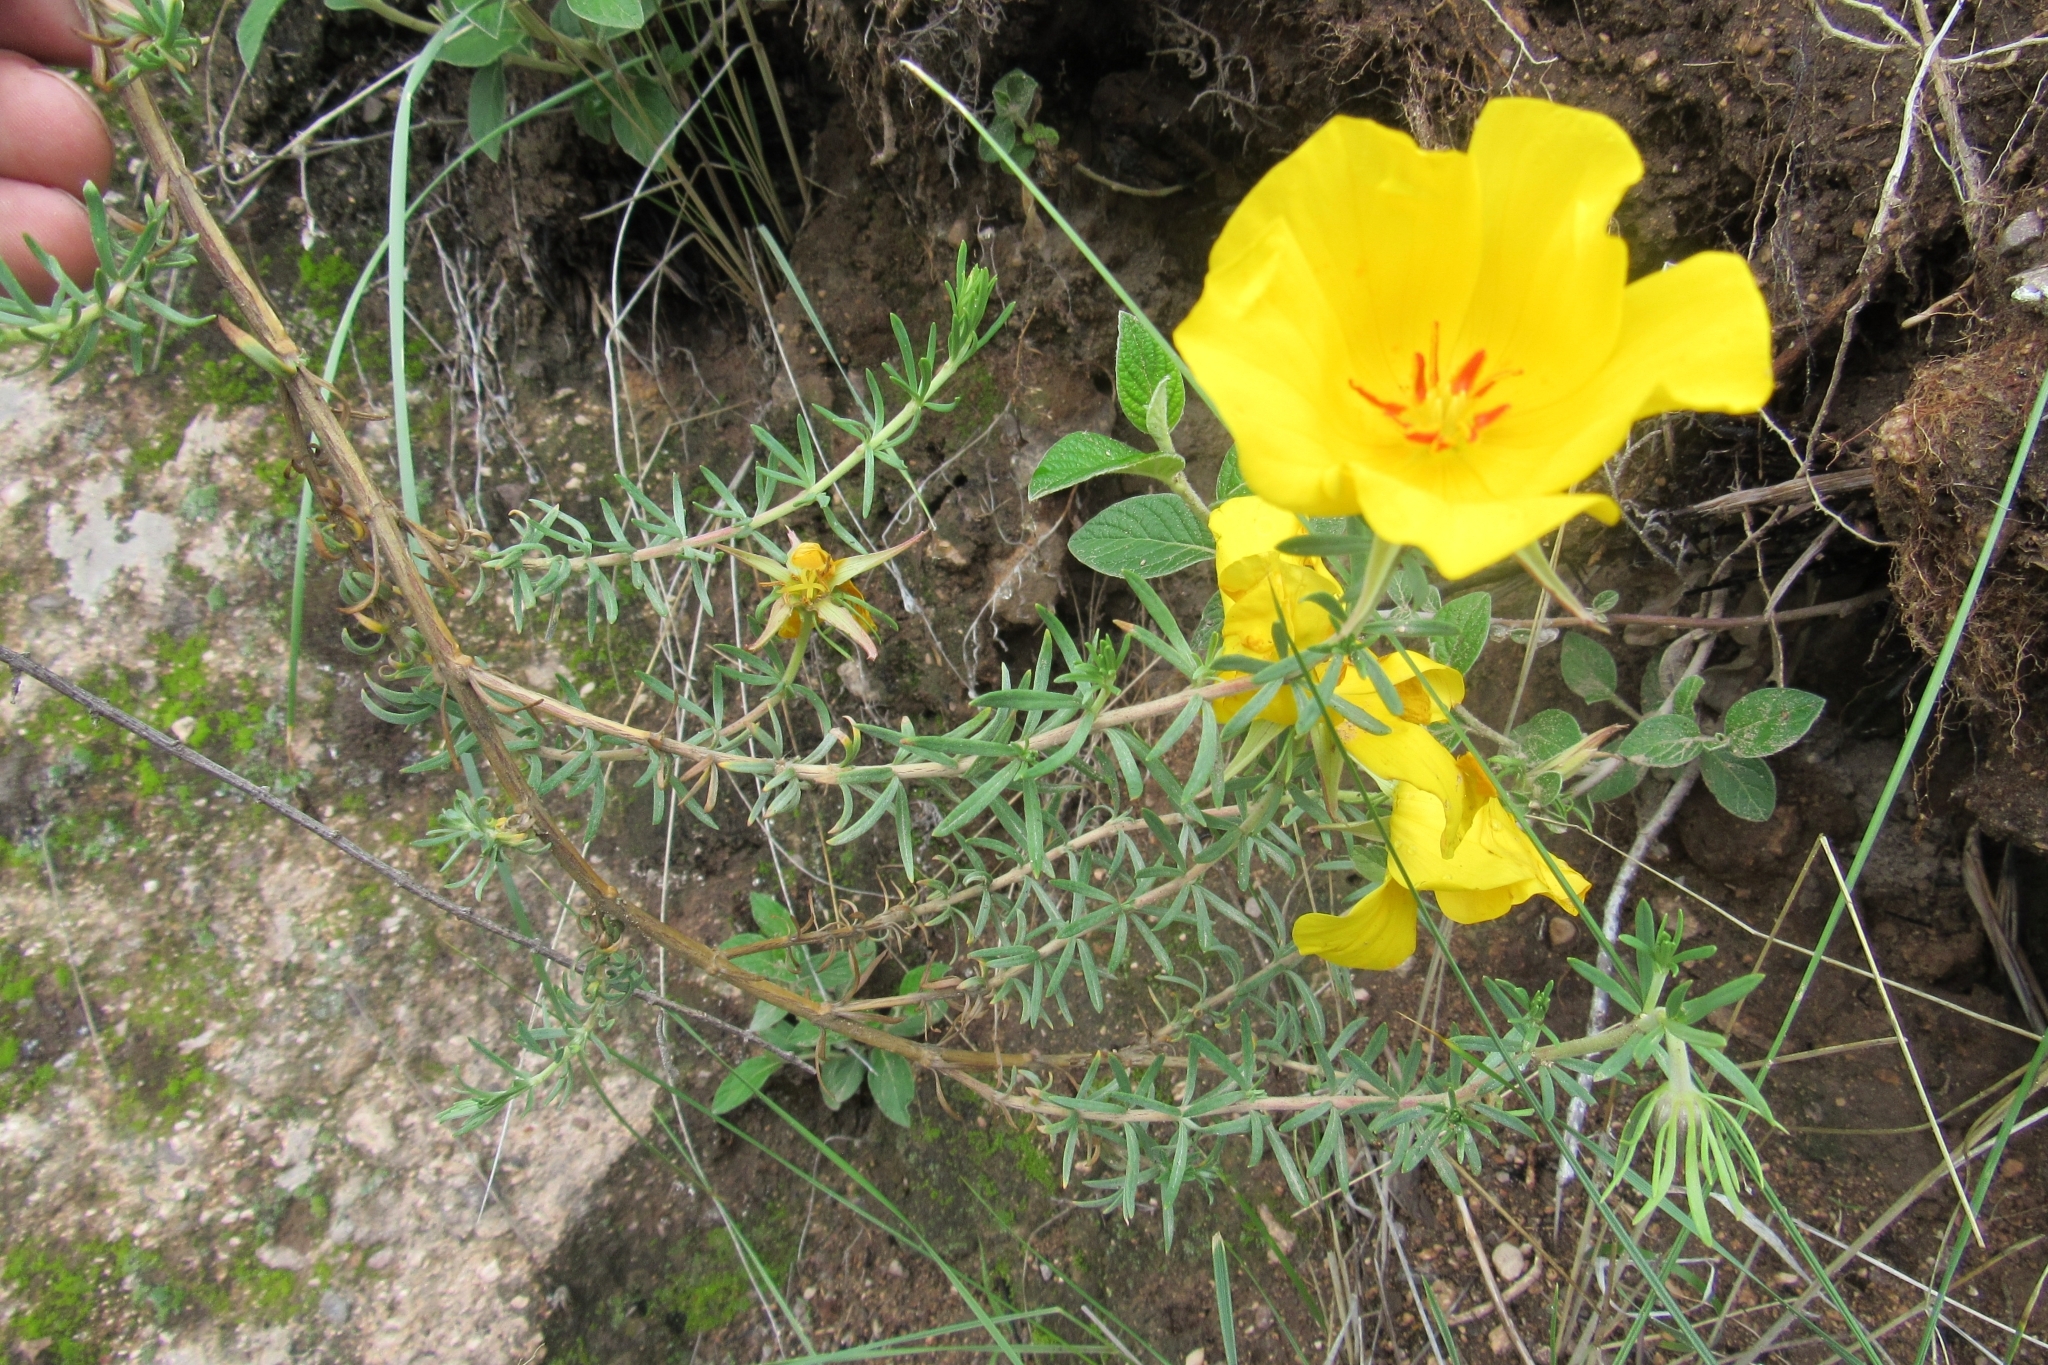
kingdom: Plantae
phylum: Tracheophyta
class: Magnoliopsida
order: Geraniales
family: Vivianiaceae
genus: Balbisia
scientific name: Balbisia meyeniana
